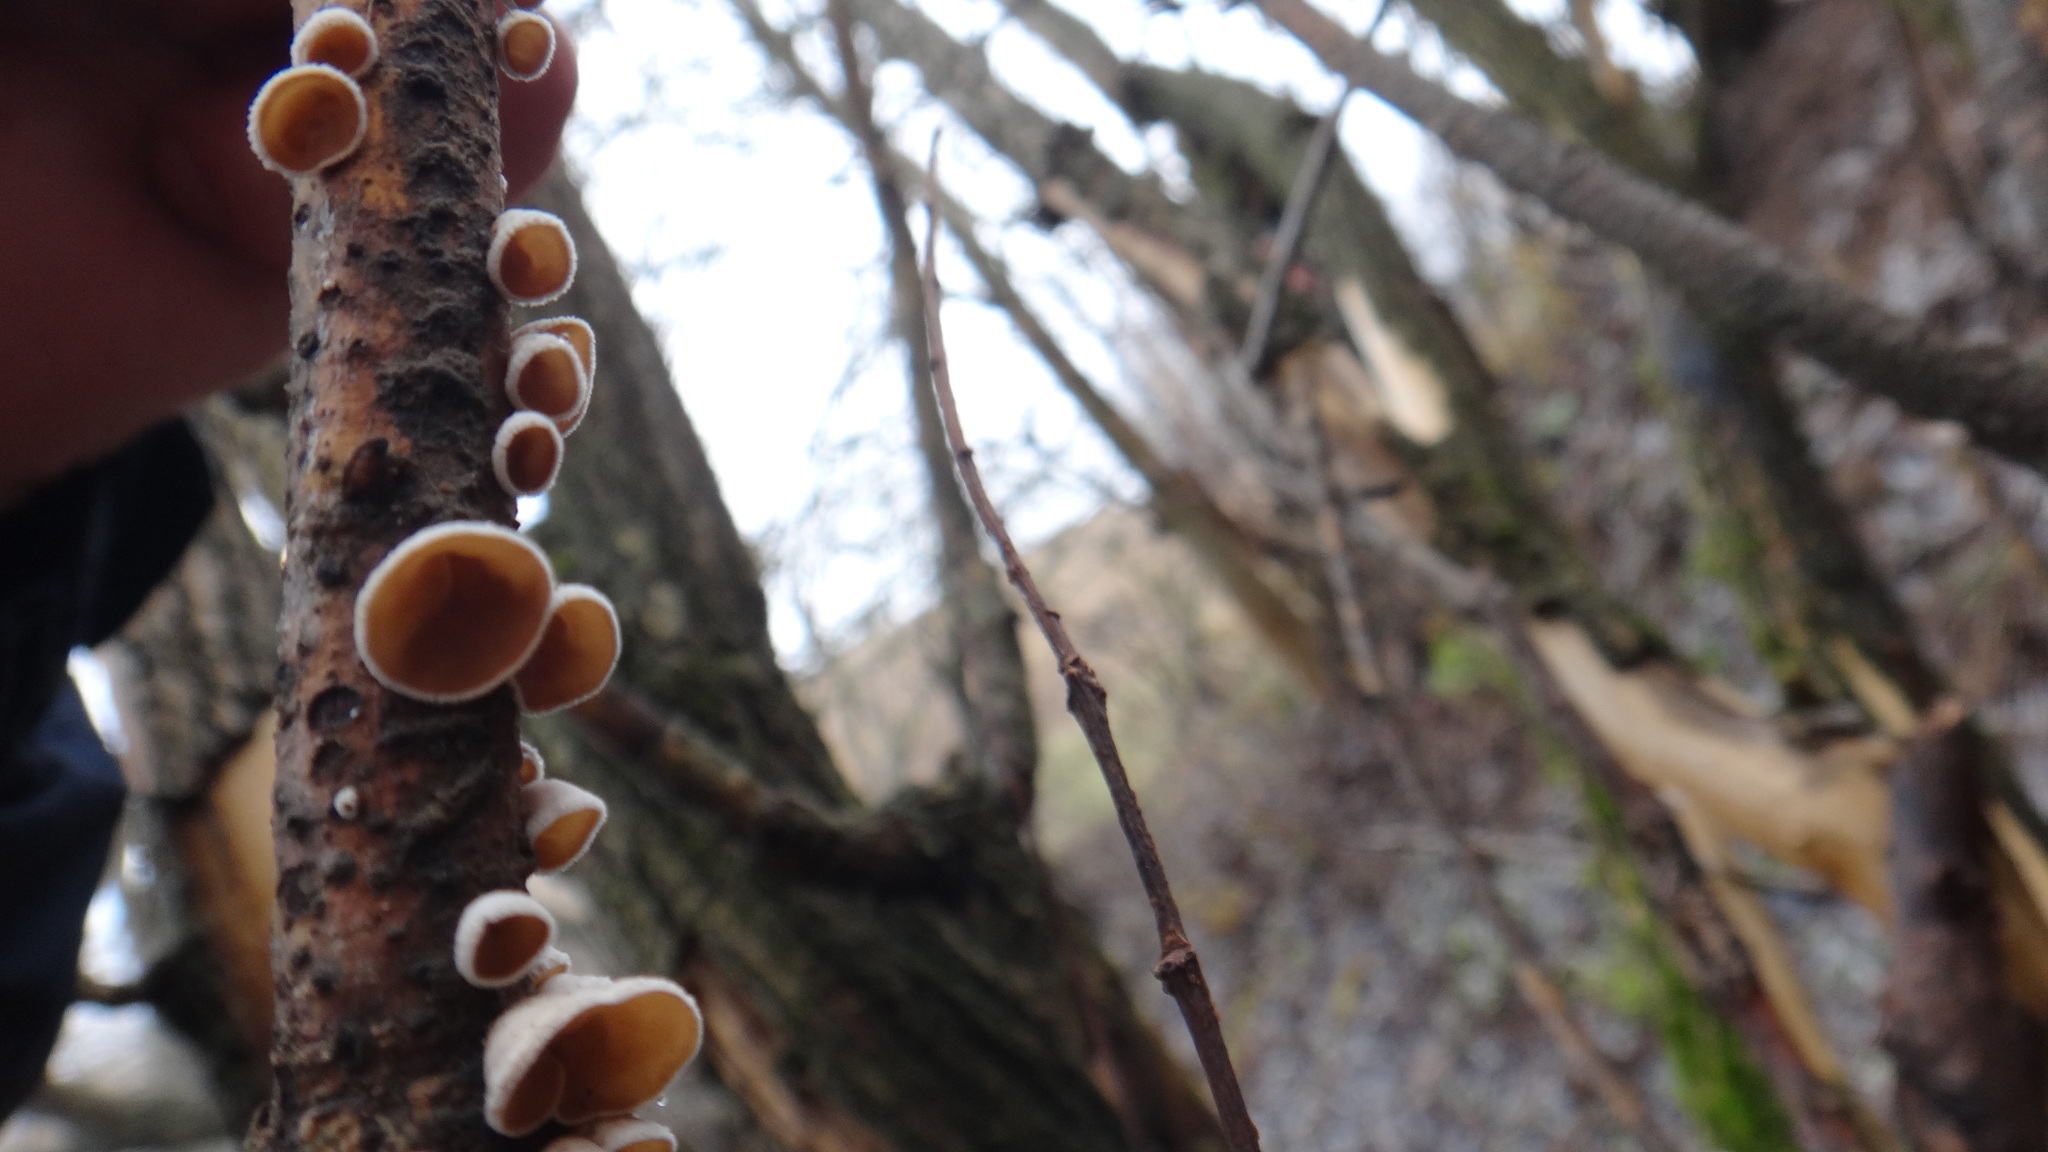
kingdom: Fungi
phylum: Basidiomycota
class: Agaricomycetes
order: Agaricales
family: Schizophyllaceae
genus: Schizophyllum
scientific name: Schizophyllum amplum
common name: Poplar bells
